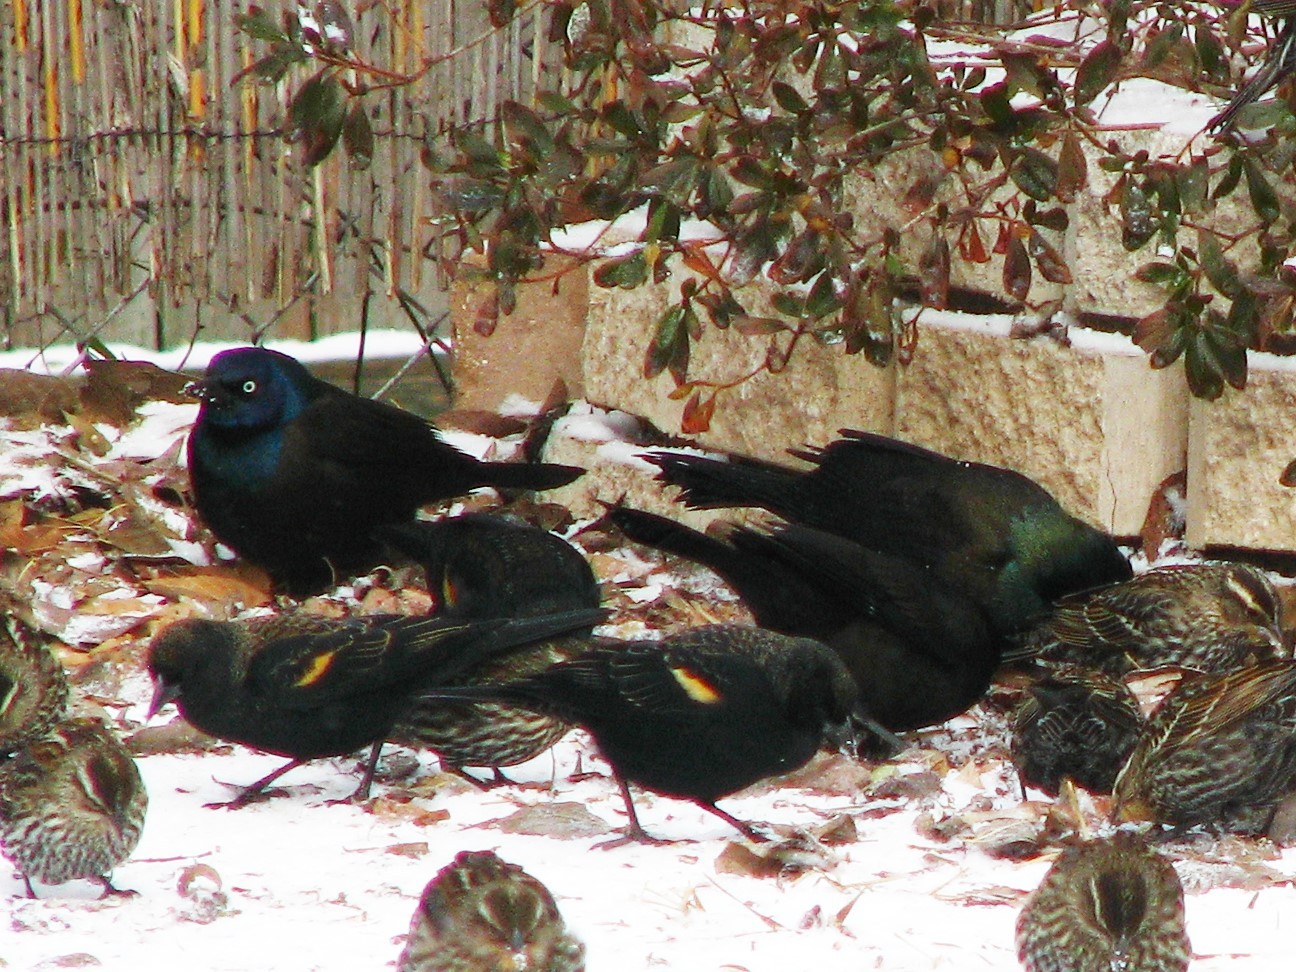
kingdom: Animalia
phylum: Chordata
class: Aves
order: Passeriformes
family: Icteridae
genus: Quiscalus
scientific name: Quiscalus quiscula
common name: Common grackle
